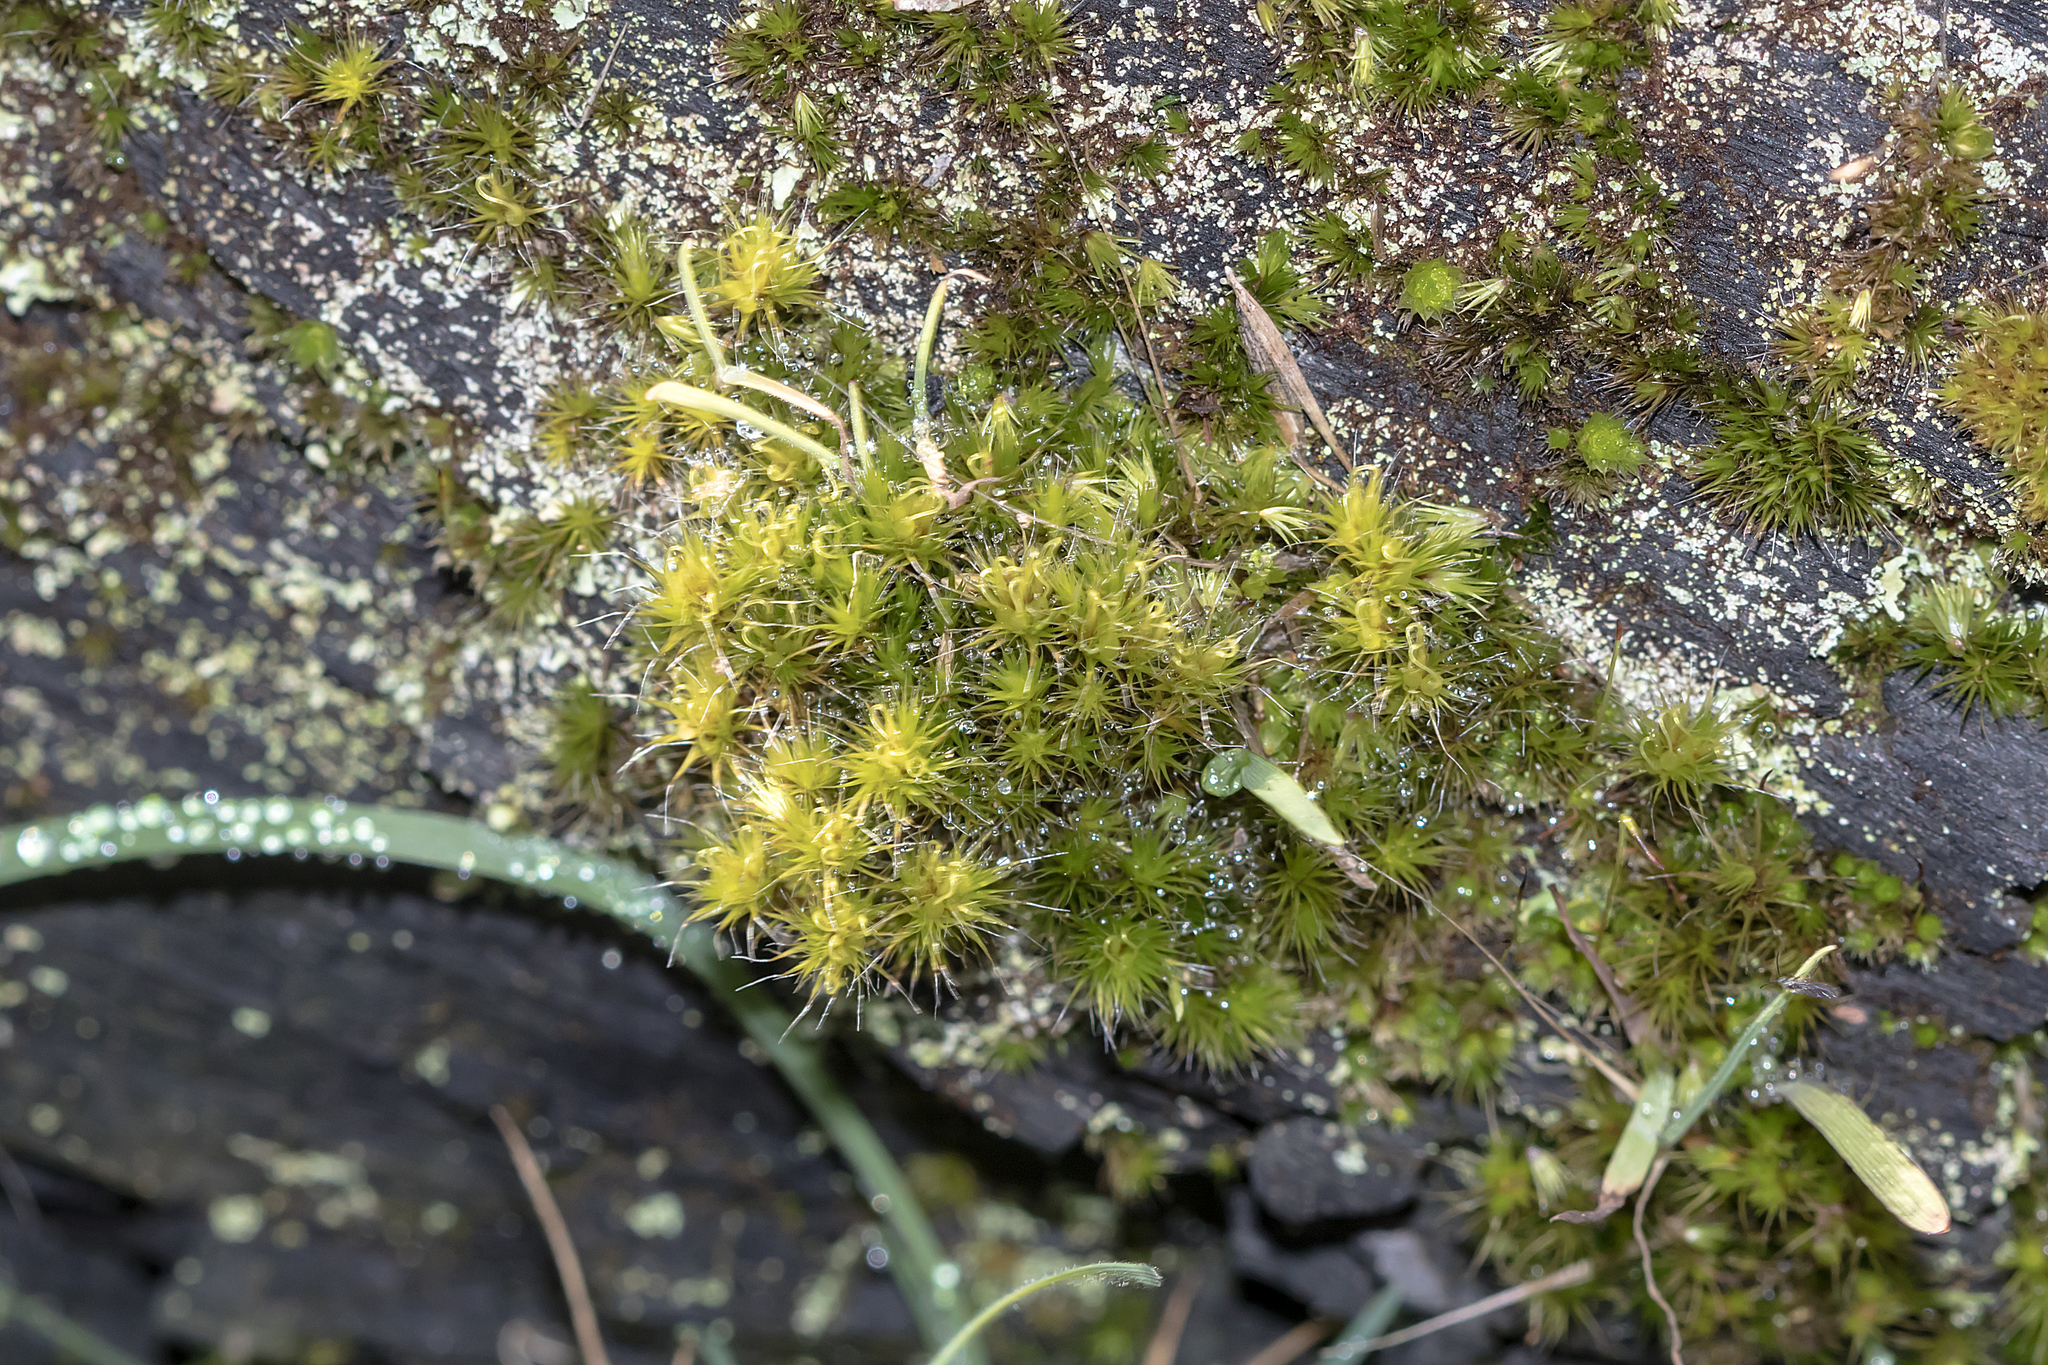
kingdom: Plantae
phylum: Bryophyta
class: Bryopsida
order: Dicranales
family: Leucobryaceae
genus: Campylopus
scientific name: Campylopus introflexus
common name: Heath star moss
